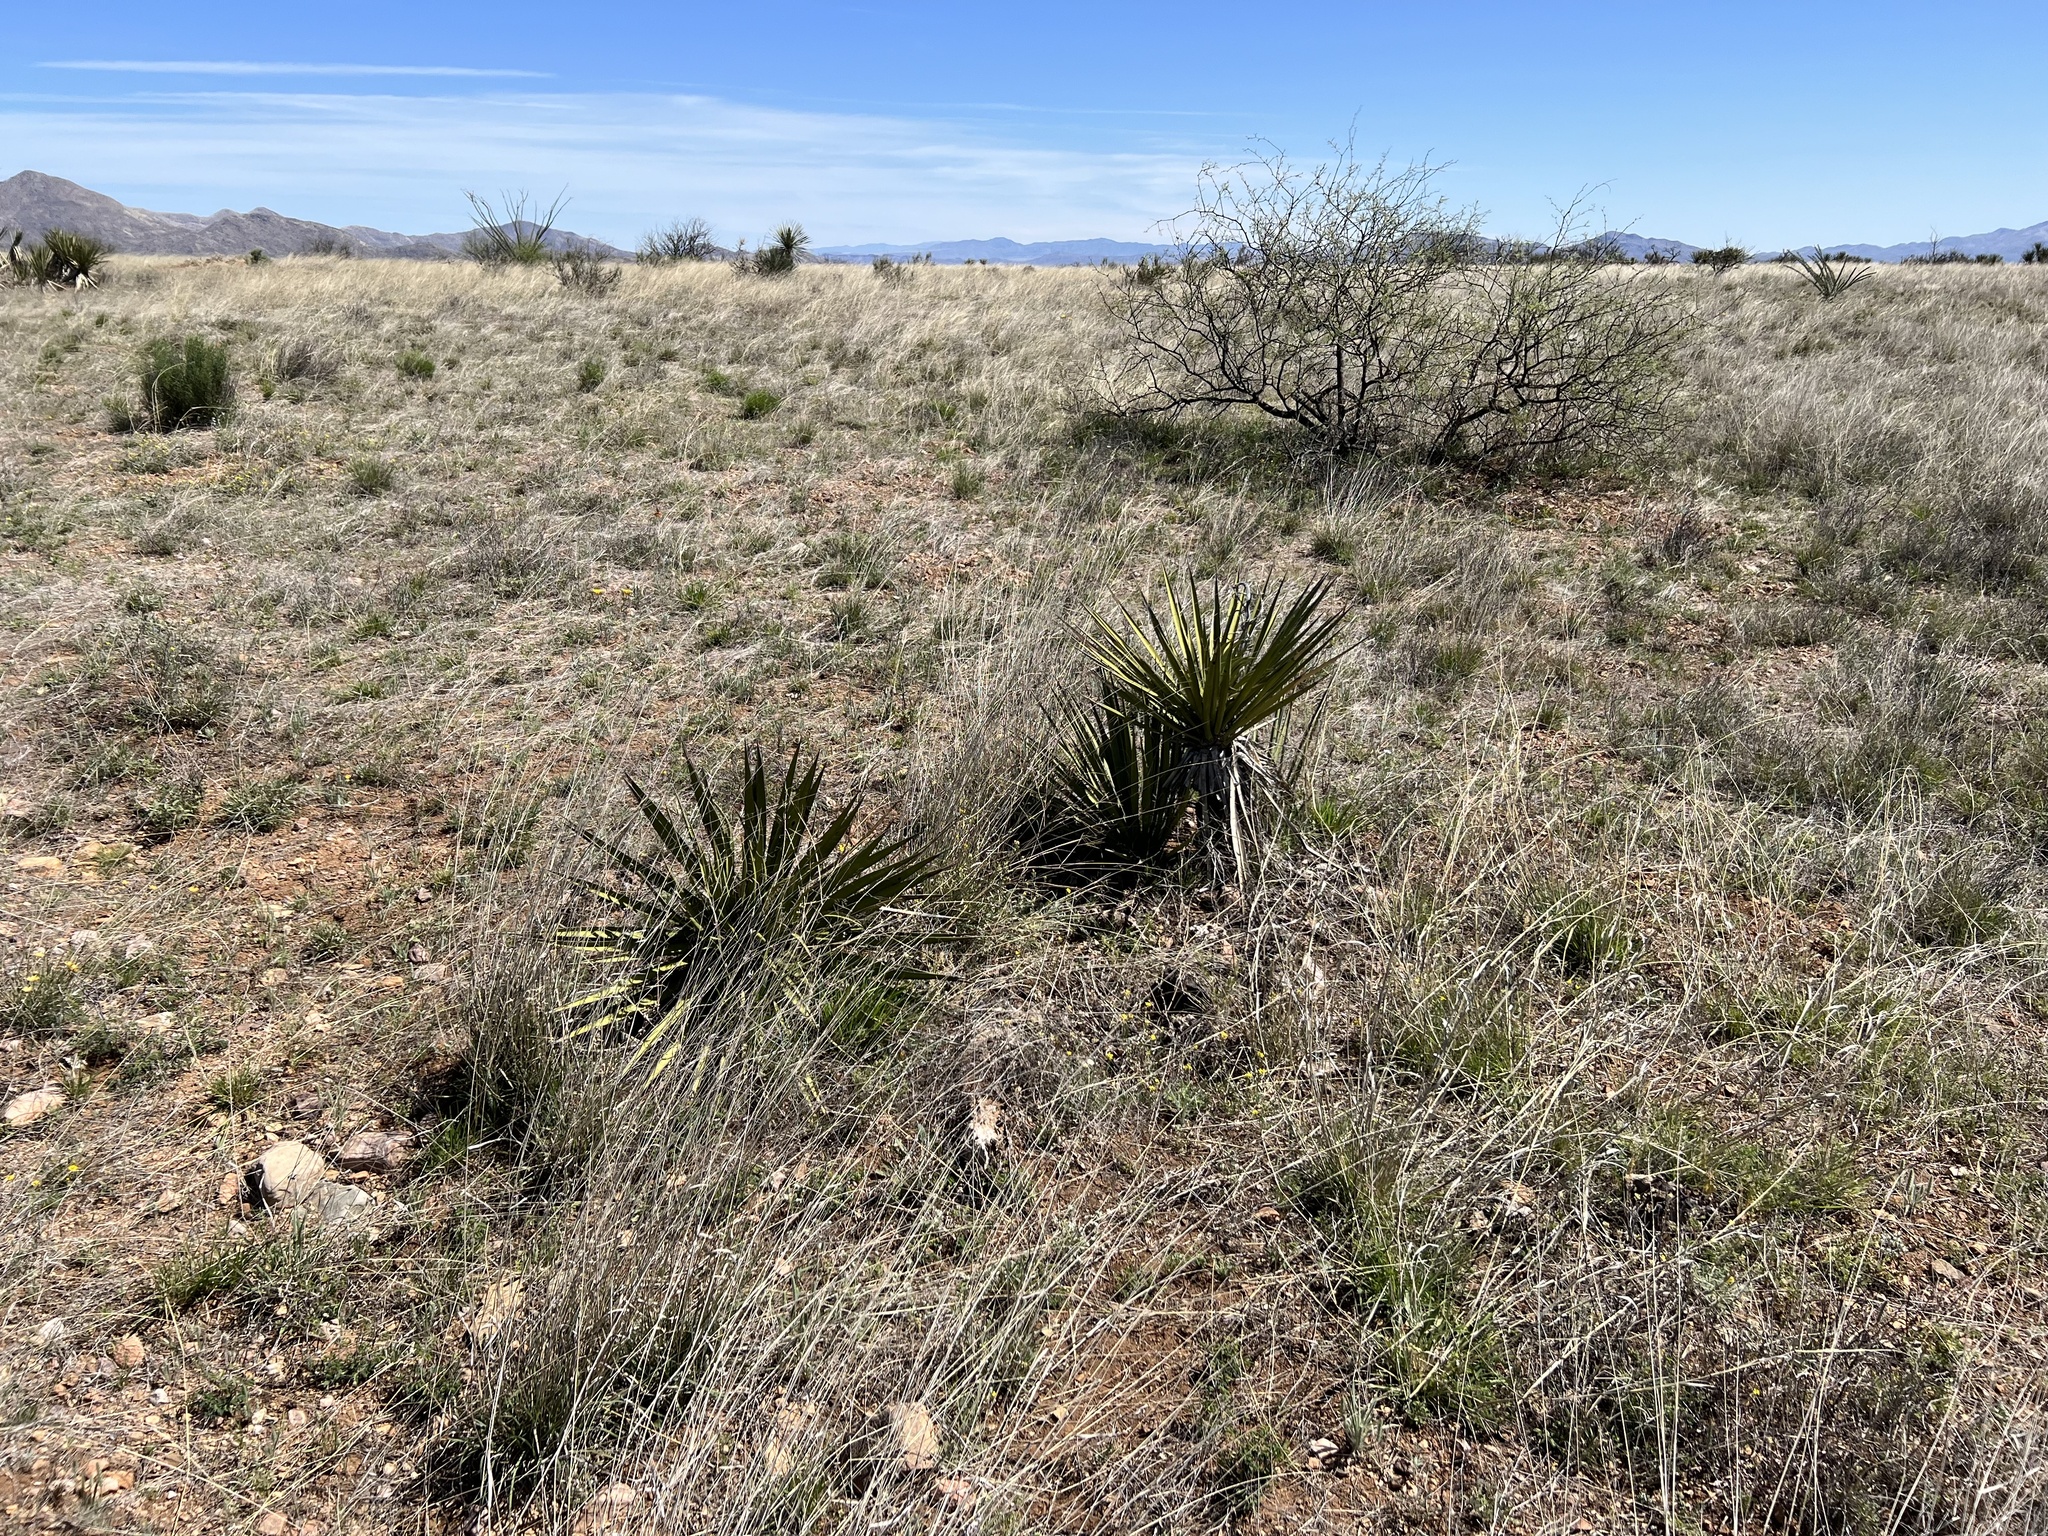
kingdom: Plantae
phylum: Tracheophyta
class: Liliopsida
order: Asparagales
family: Asparagaceae
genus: Yucca
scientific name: Yucca baccata
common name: Banana yucca
